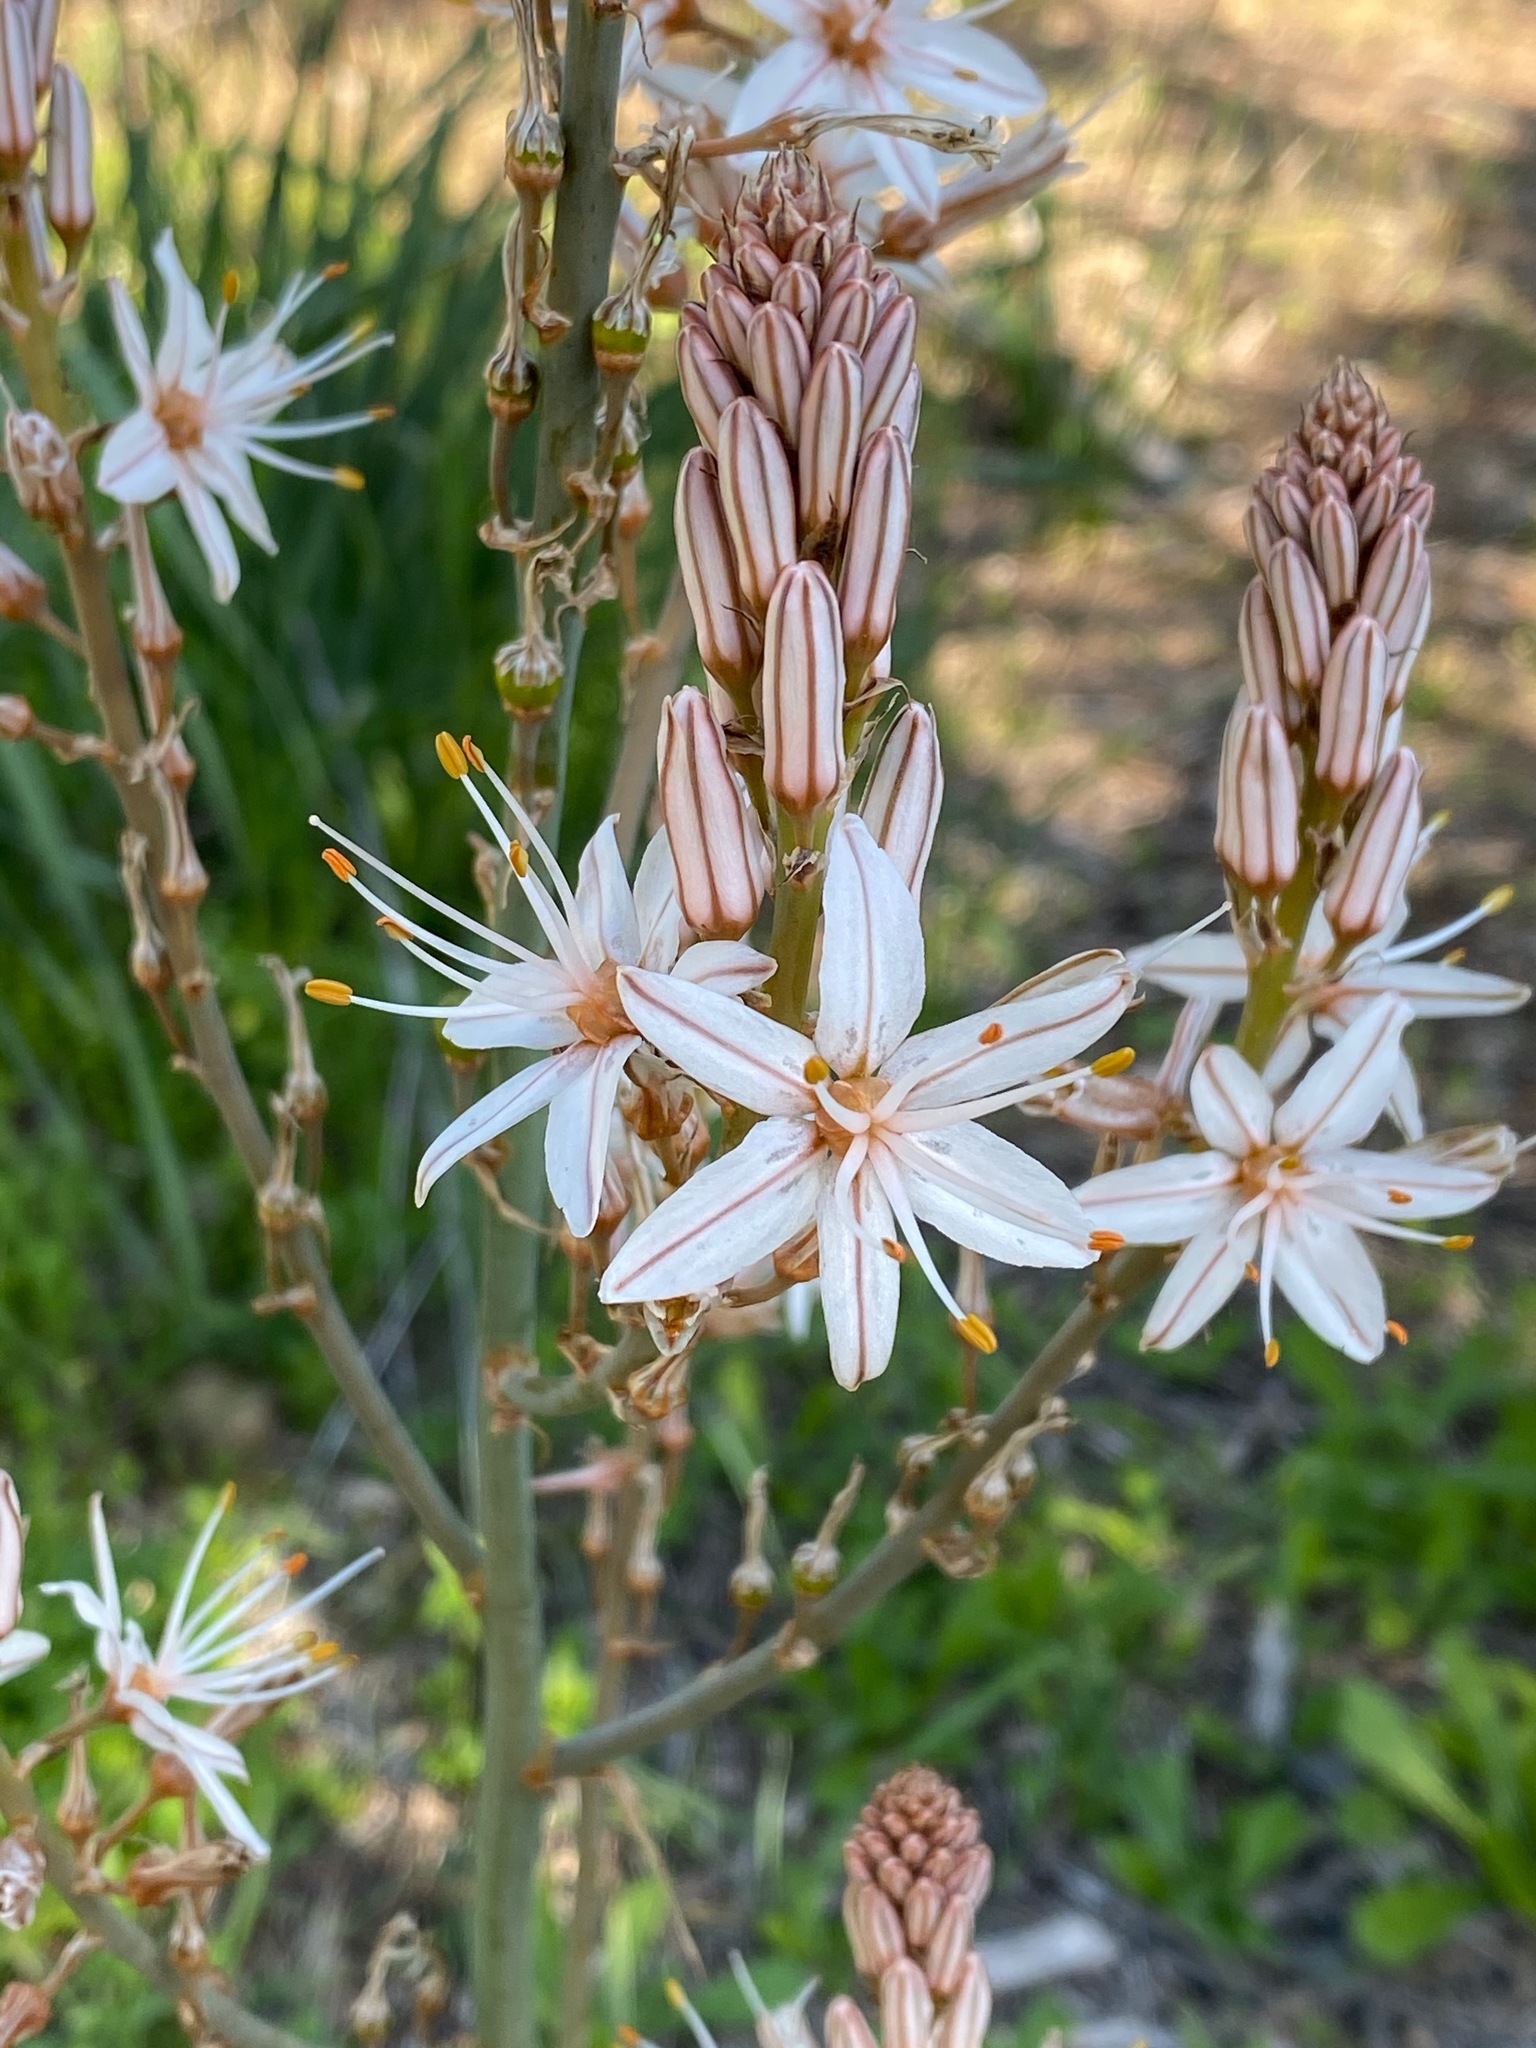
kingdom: Plantae
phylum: Tracheophyta
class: Liliopsida
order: Asparagales
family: Asphodelaceae
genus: Asphodelus
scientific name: Asphodelus ramosus
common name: Silverrod
